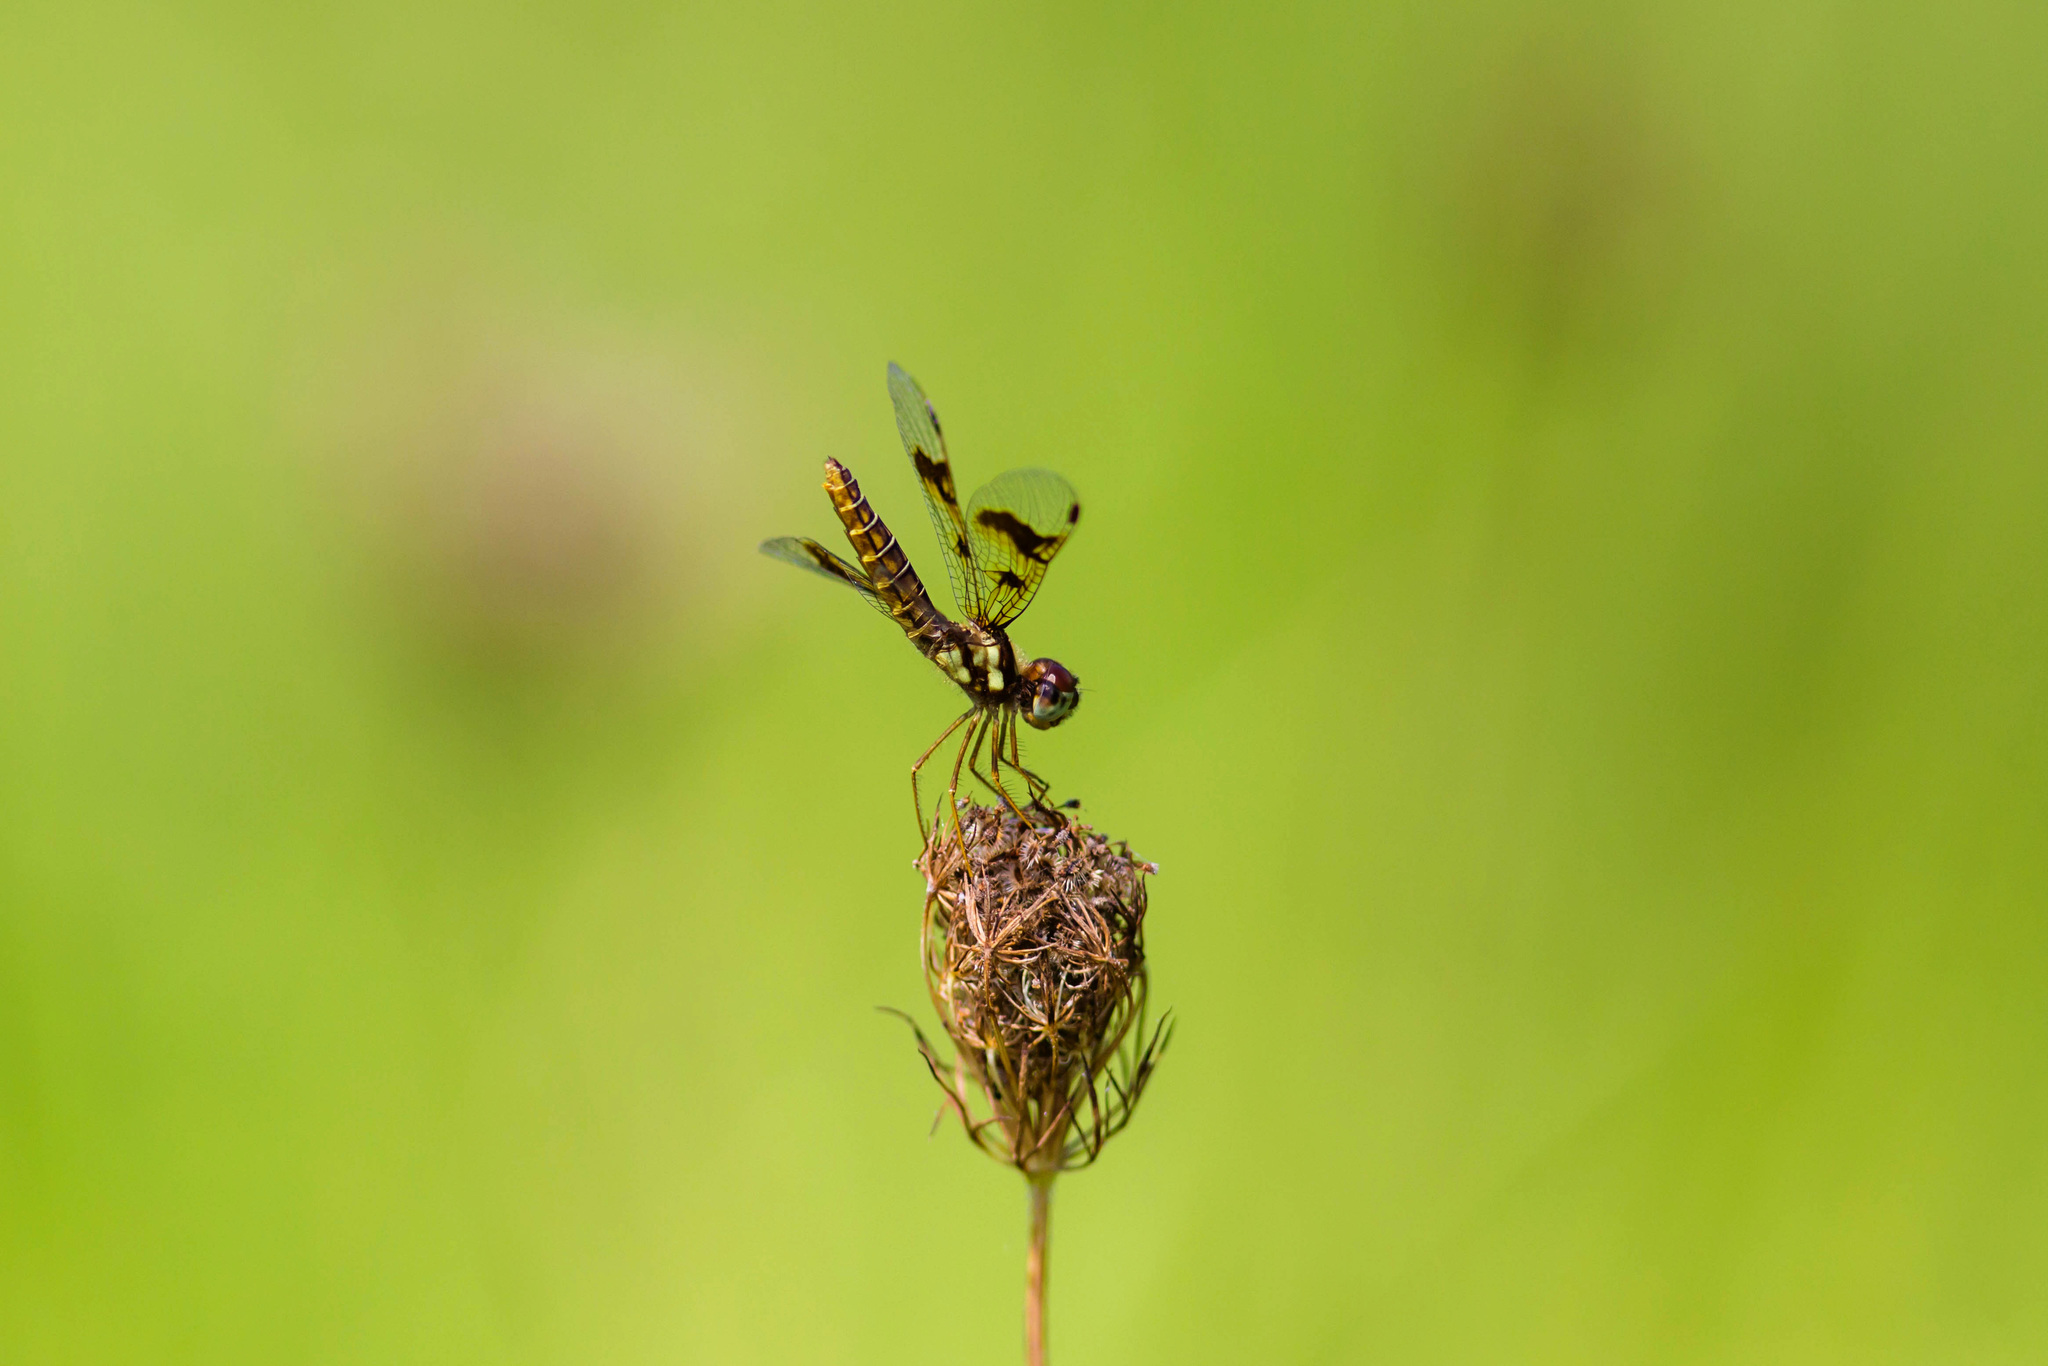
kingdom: Animalia
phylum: Arthropoda
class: Insecta
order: Odonata
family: Libellulidae
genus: Perithemis
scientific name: Perithemis tenera
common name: Eastern amberwing
